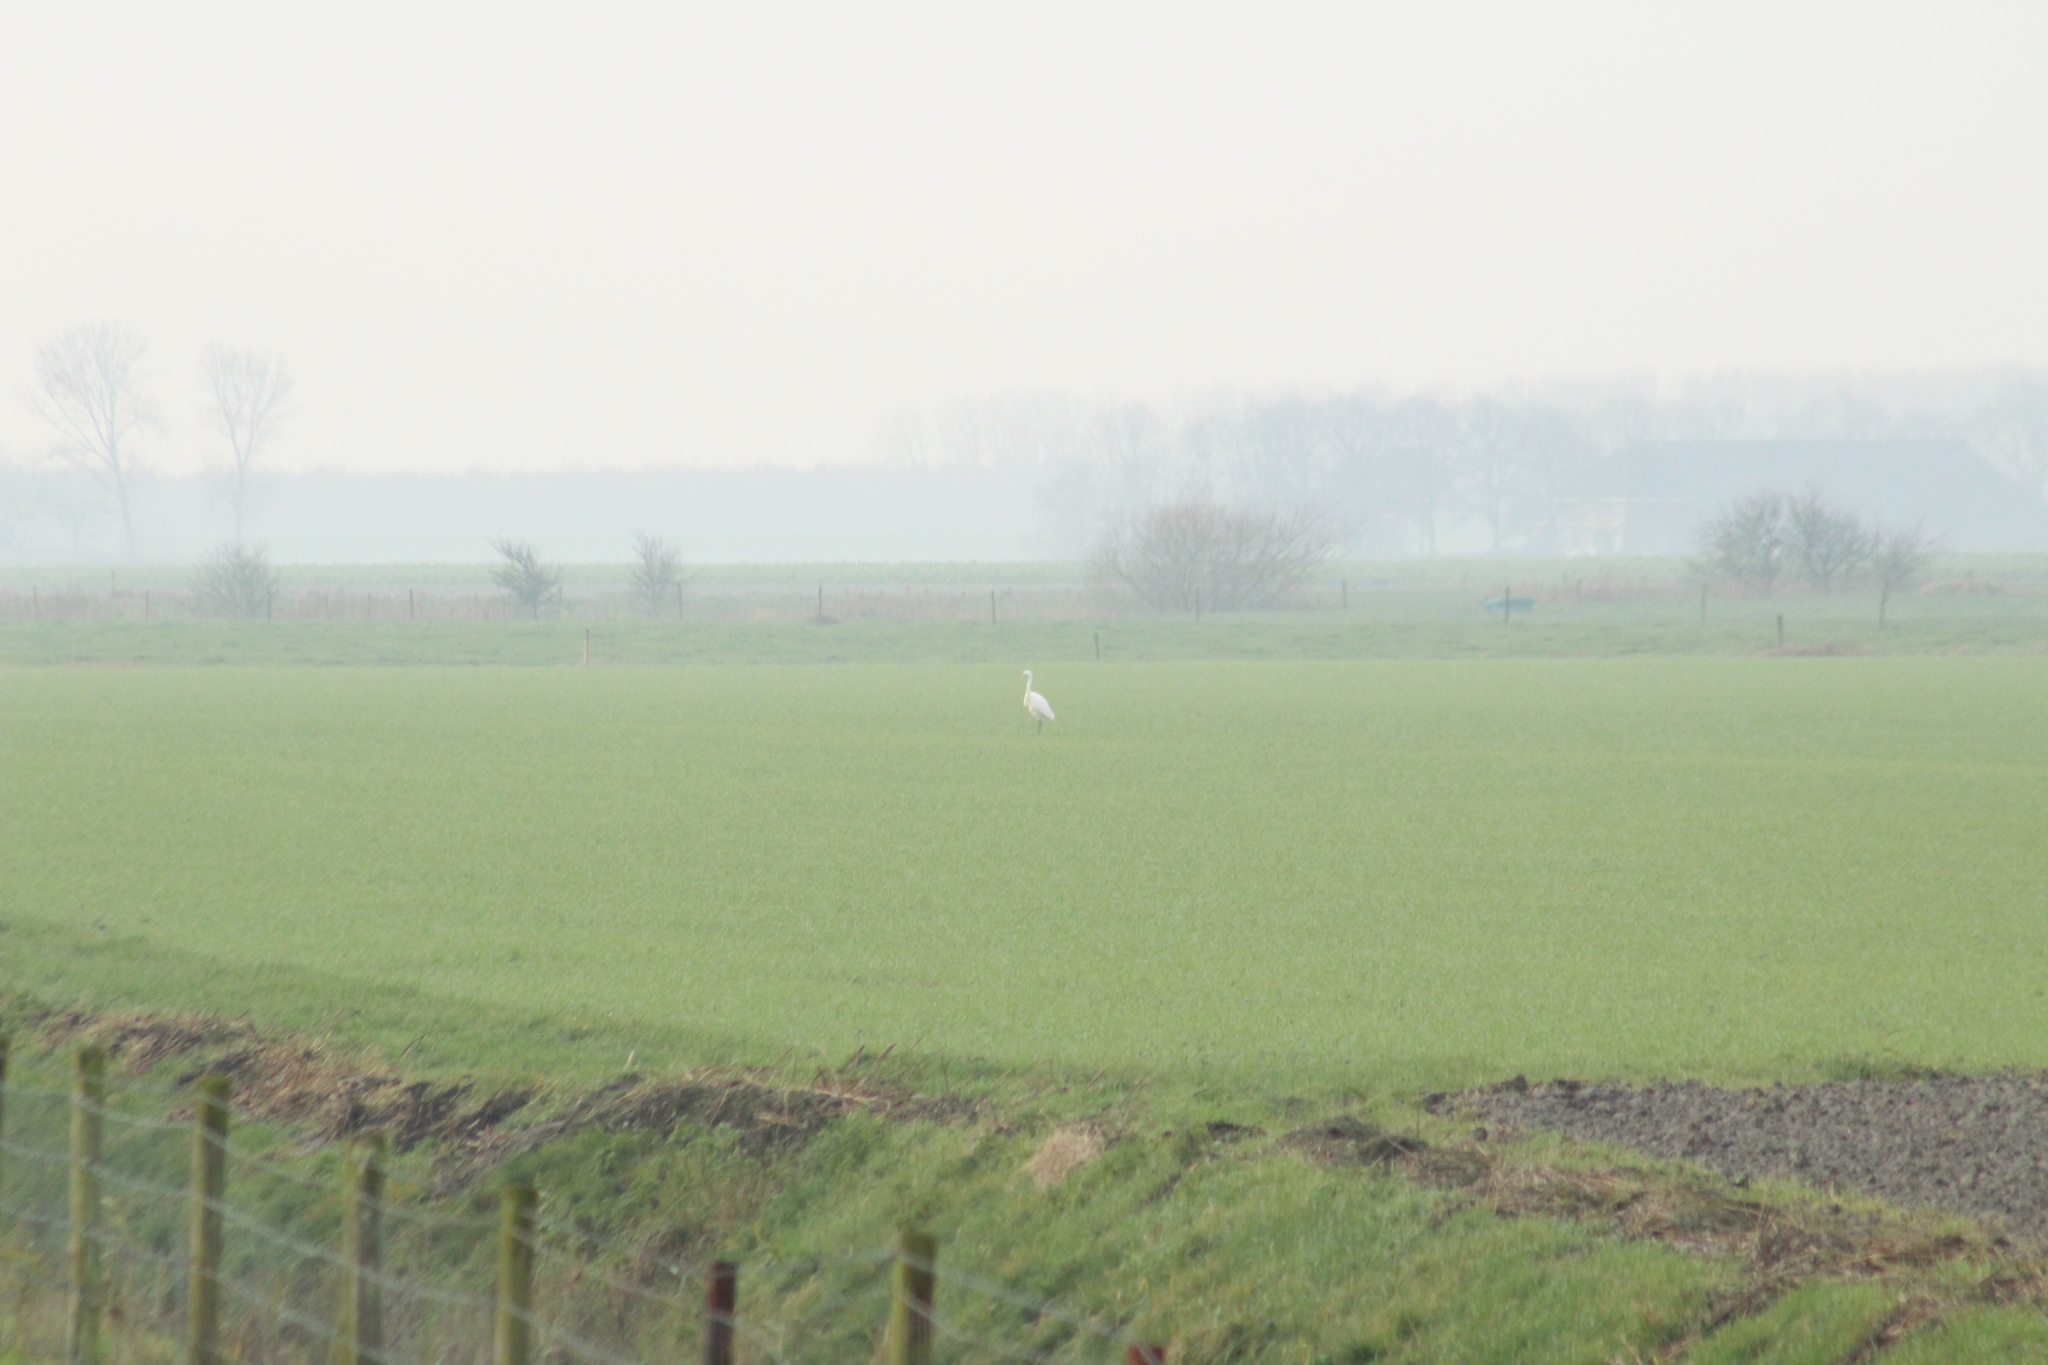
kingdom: Animalia
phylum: Chordata
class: Aves
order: Pelecaniformes
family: Ardeidae
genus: Ardea
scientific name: Ardea alba
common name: Great egret
